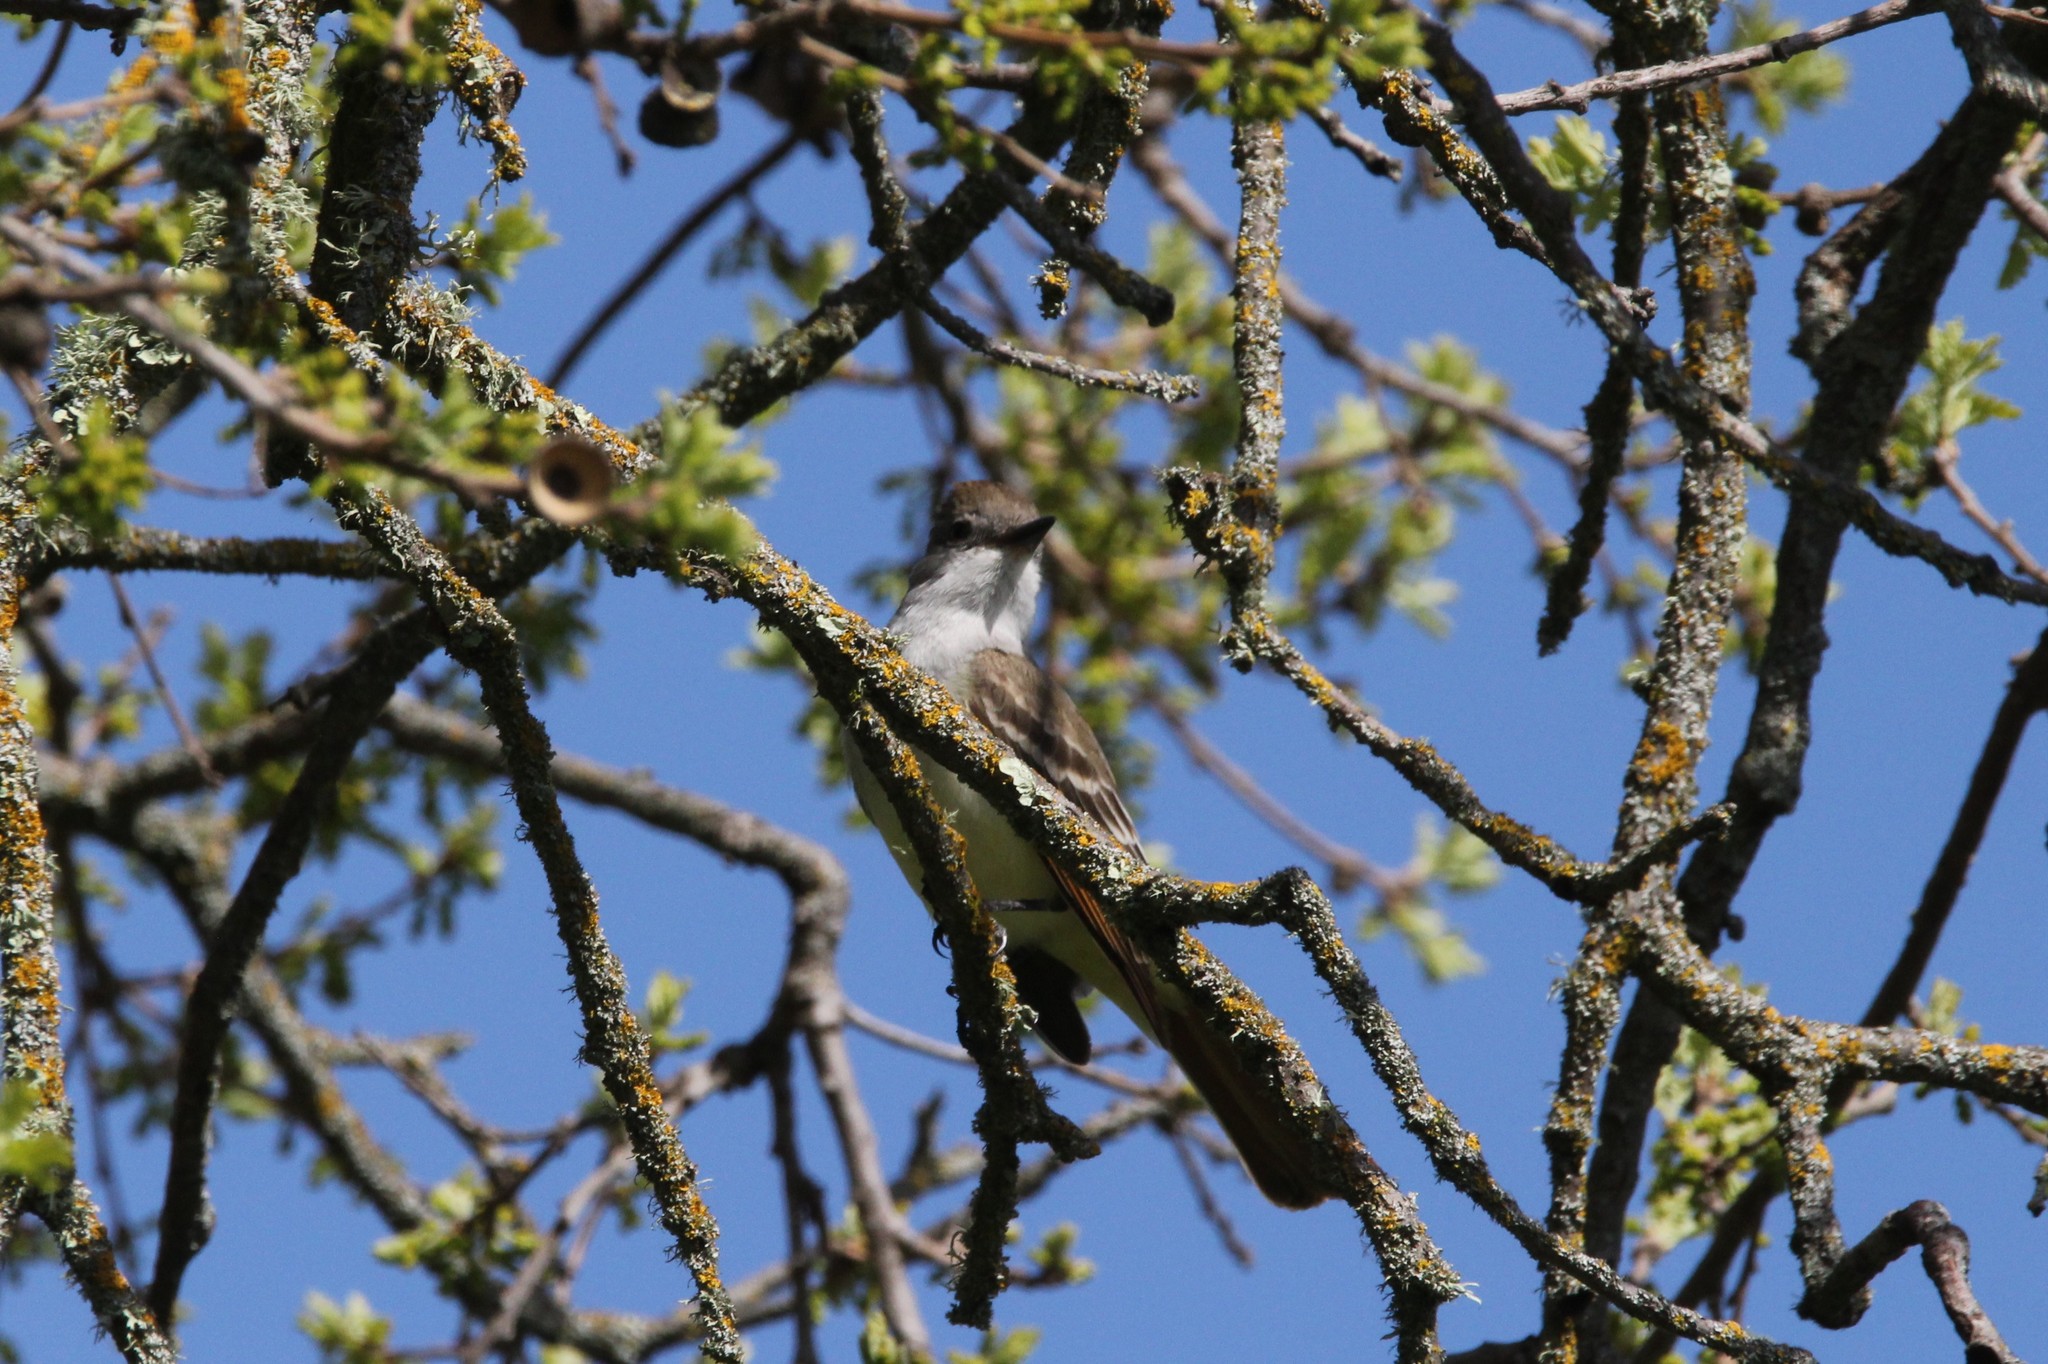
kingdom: Animalia
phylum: Chordata
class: Aves
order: Passeriformes
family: Tyrannidae
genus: Myiarchus
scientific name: Myiarchus cinerascens
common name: Ash-throated flycatcher
